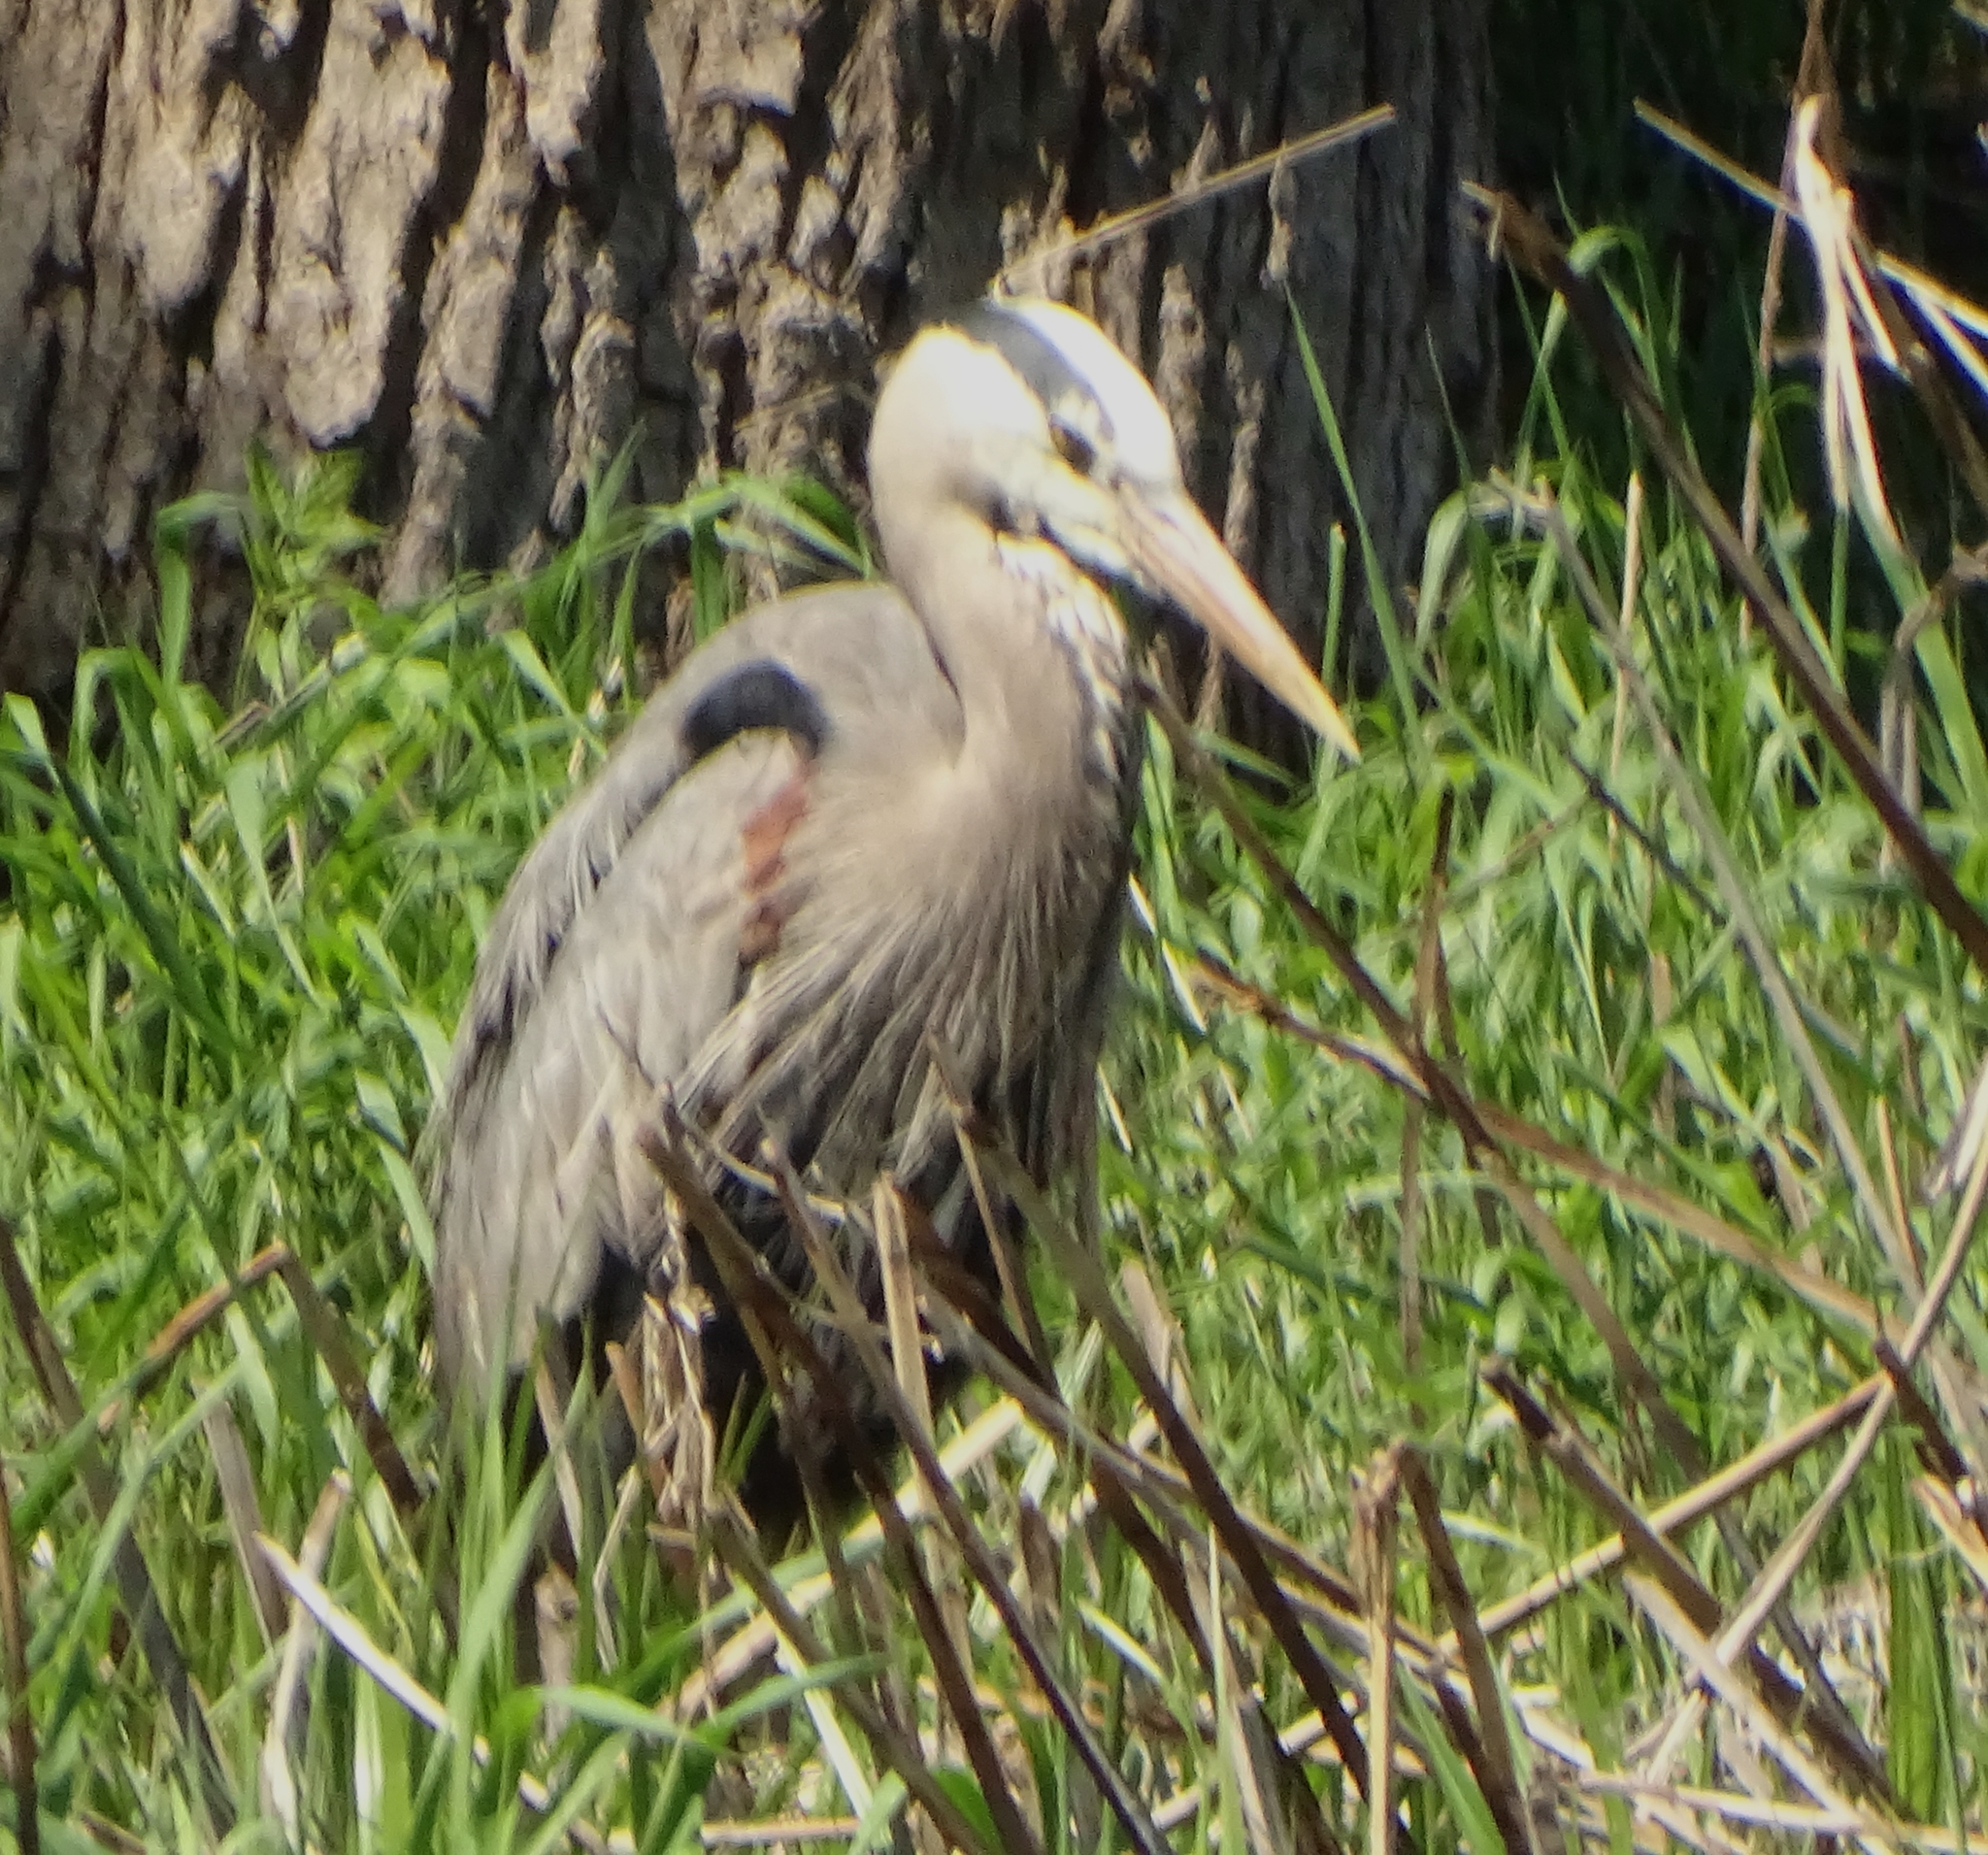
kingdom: Animalia
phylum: Chordata
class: Aves
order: Pelecaniformes
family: Ardeidae
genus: Ardea
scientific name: Ardea herodias
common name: Great blue heron
